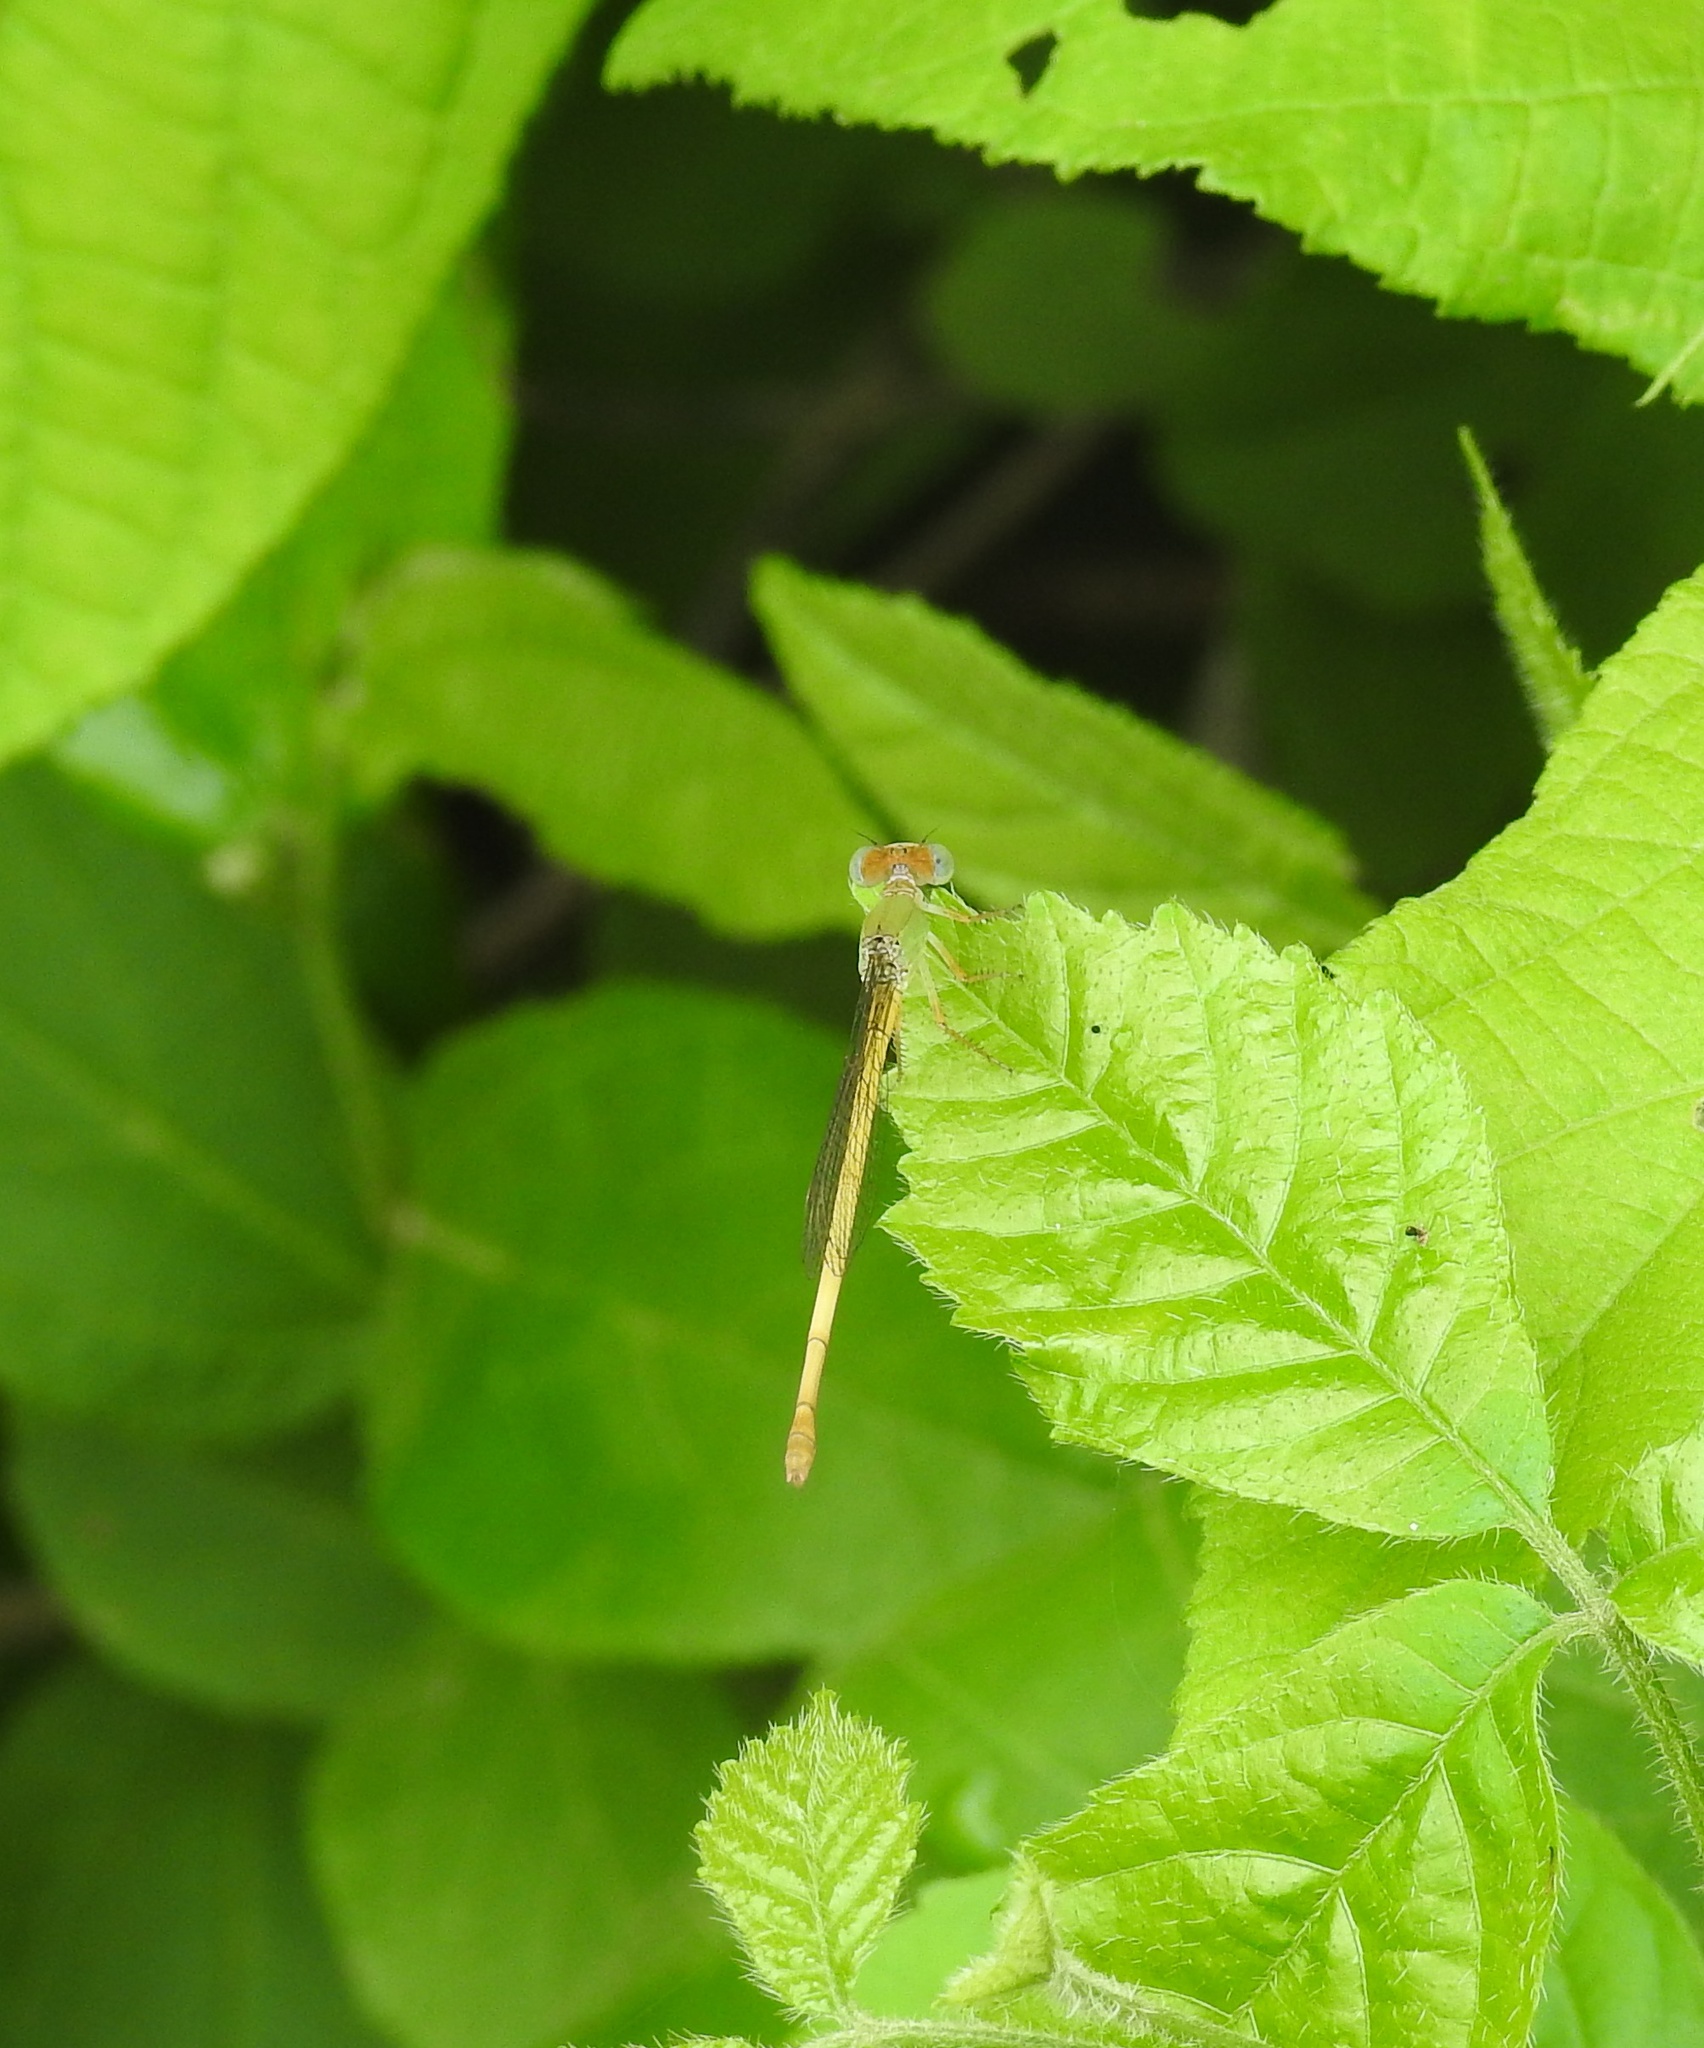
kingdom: Animalia
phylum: Arthropoda
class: Insecta
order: Odonata
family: Coenagrionidae
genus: Ceriagrion
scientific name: Ceriagrion coromandelianum
